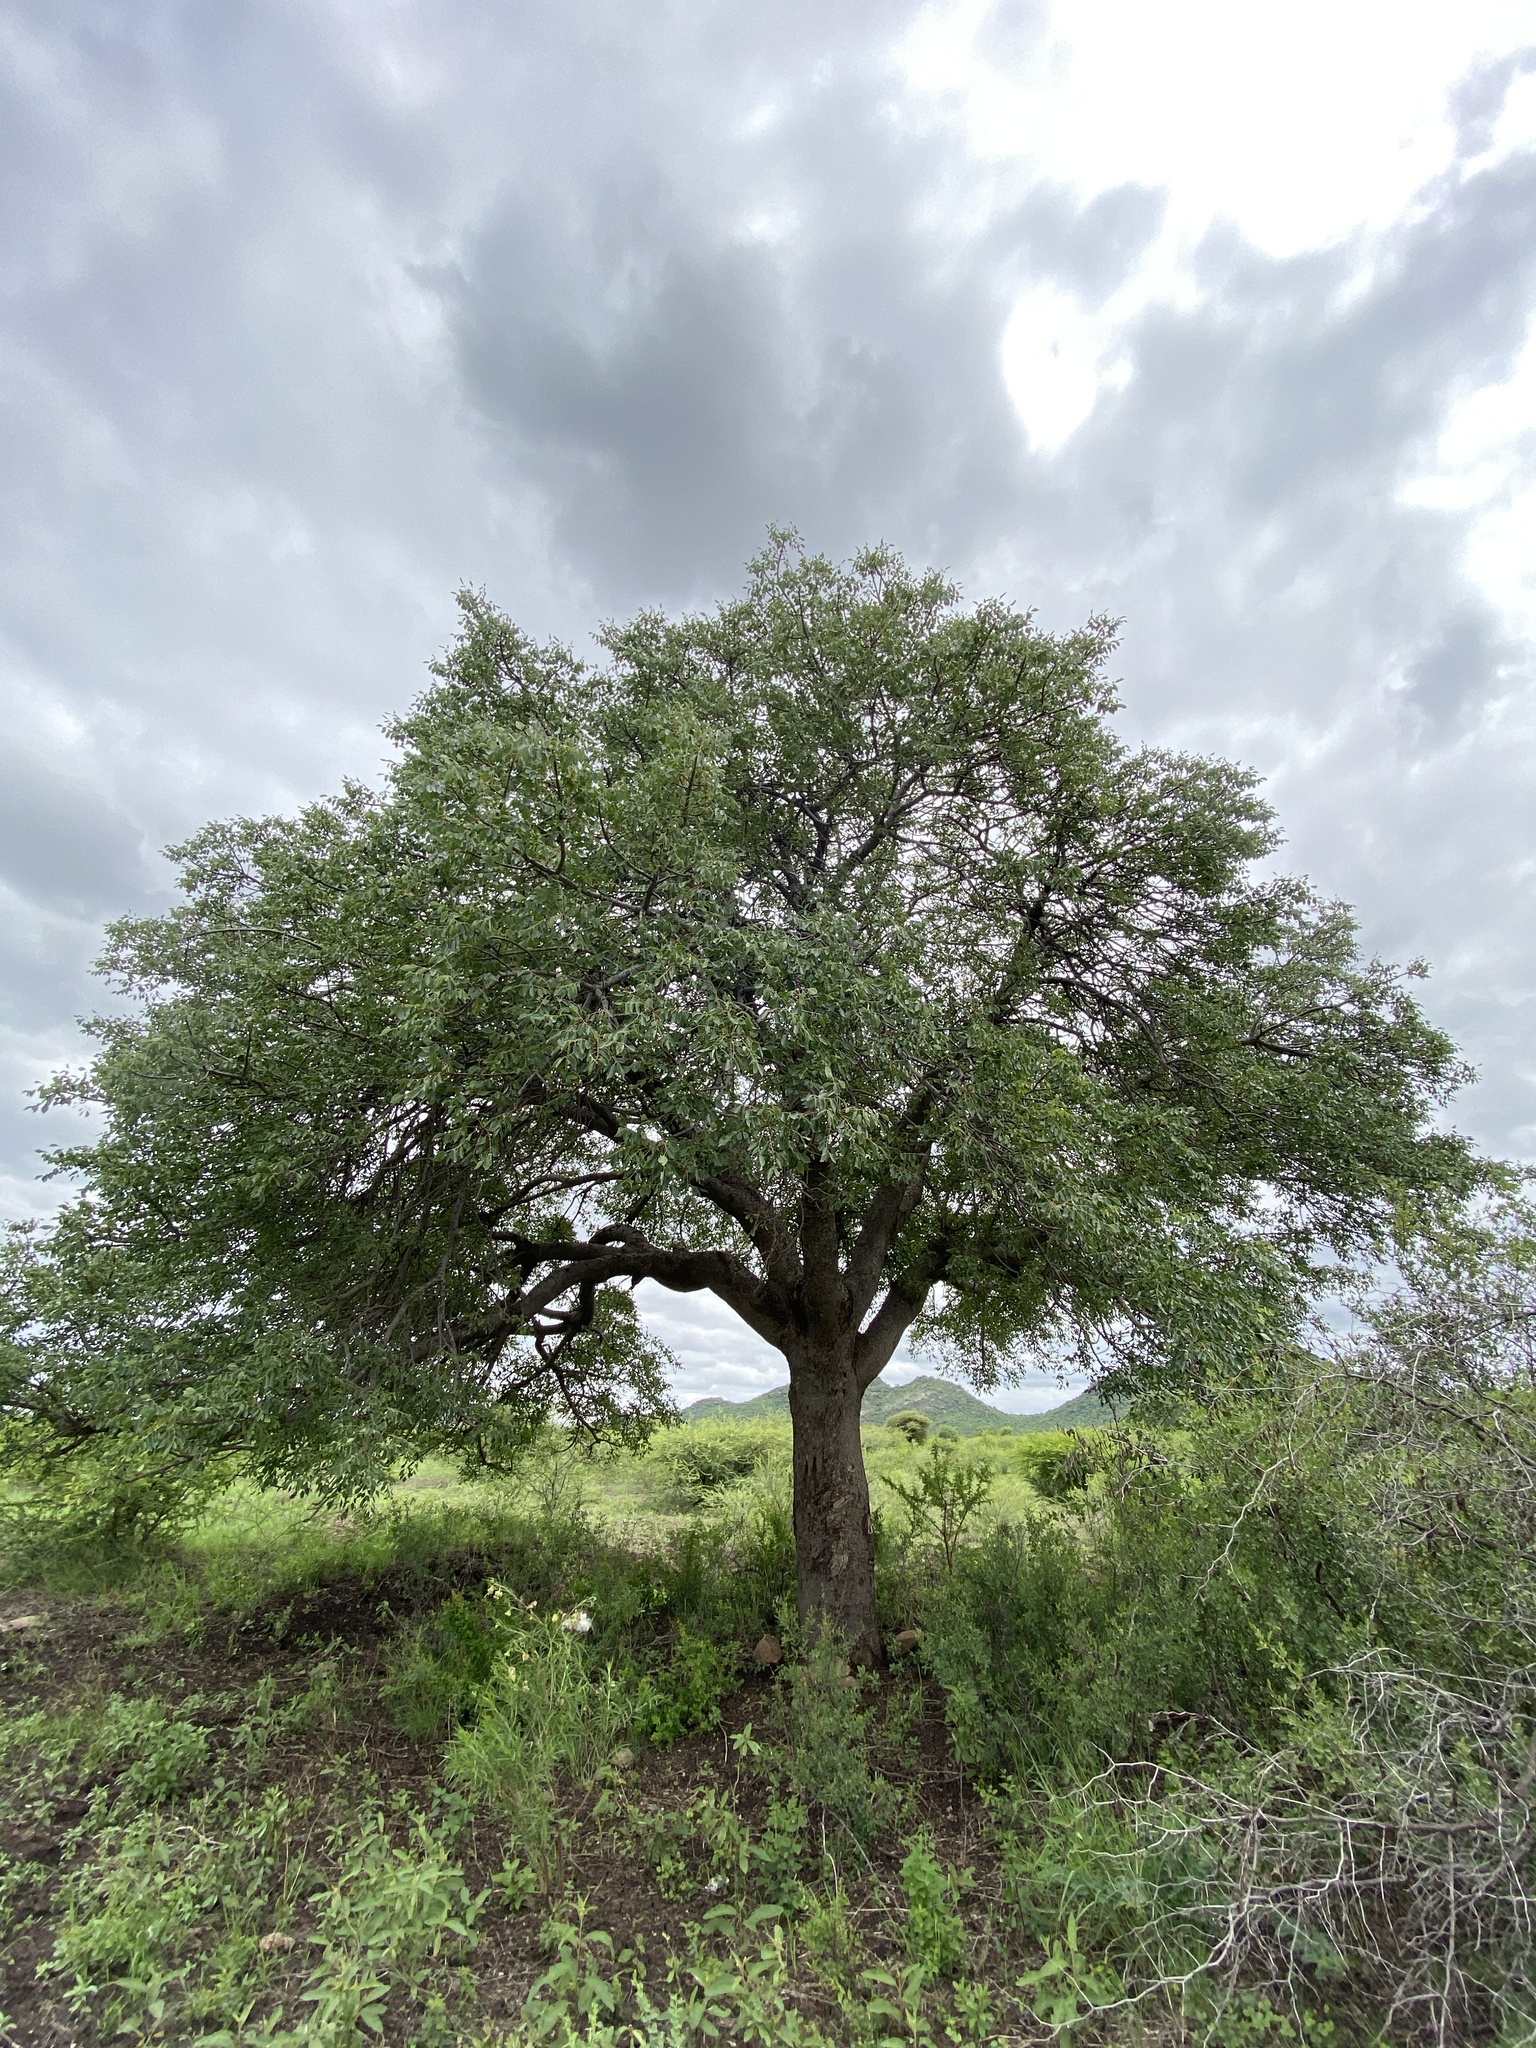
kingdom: Plantae
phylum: Tracheophyta
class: Magnoliopsida
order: Sapindales
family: Anacardiaceae
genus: Sclerocarya
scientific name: Sclerocarya birrea
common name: Marula
